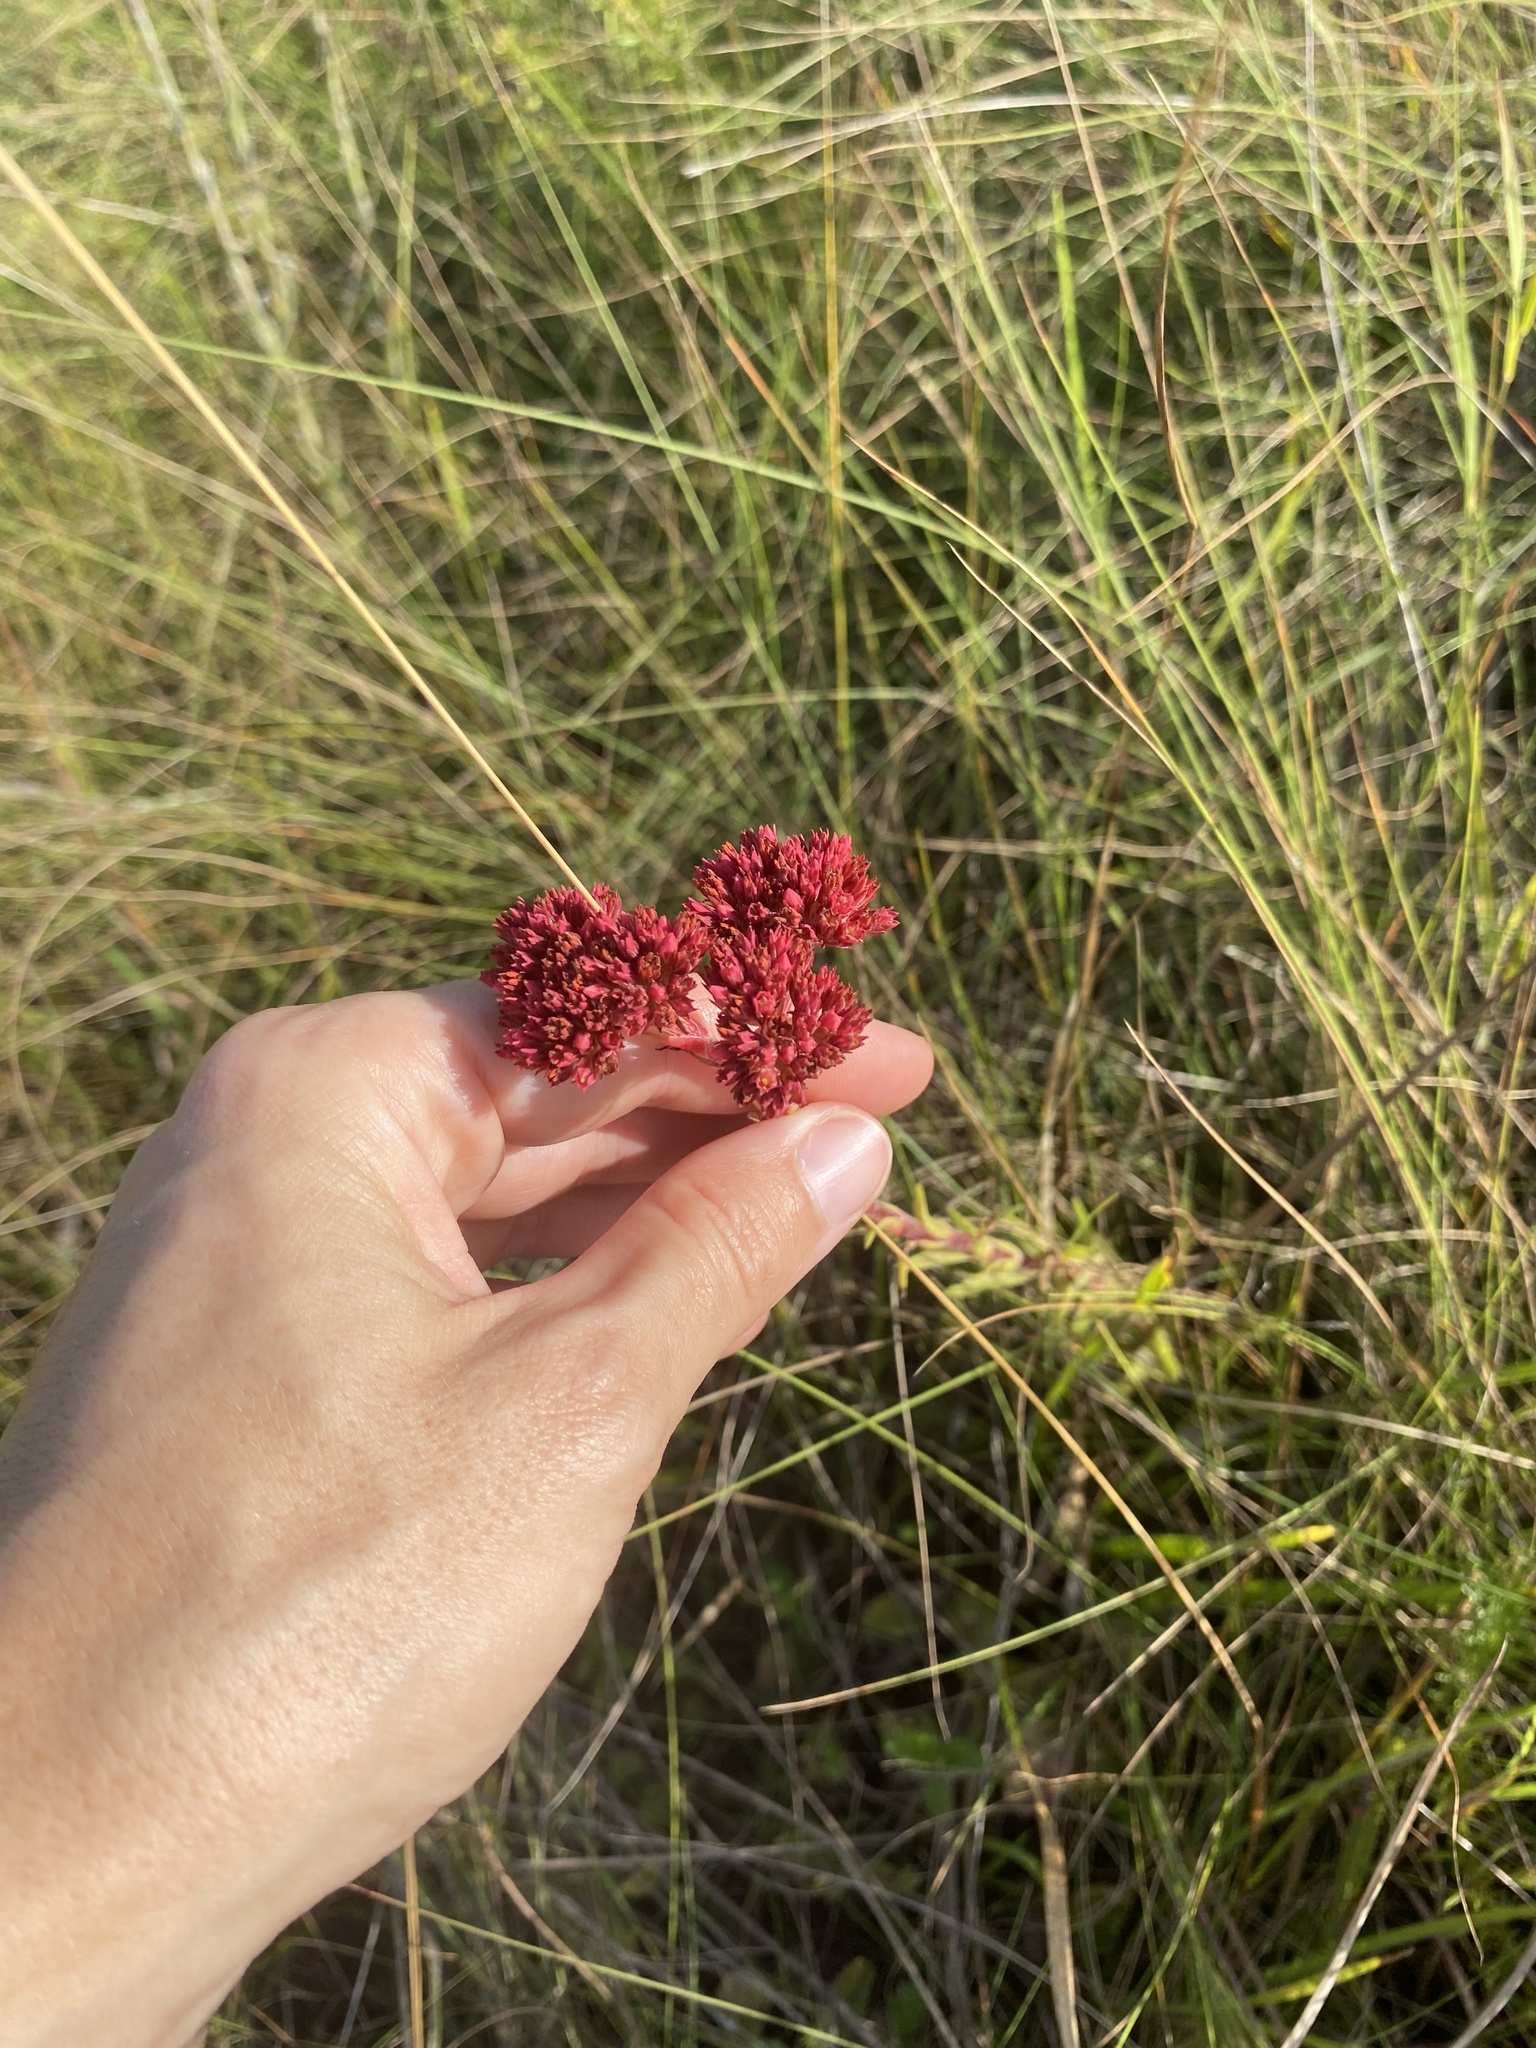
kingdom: Plantae
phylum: Tracheophyta
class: Magnoliopsida
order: Saxifragales
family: Crassulaceae
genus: Crassula
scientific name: Crassula alba
